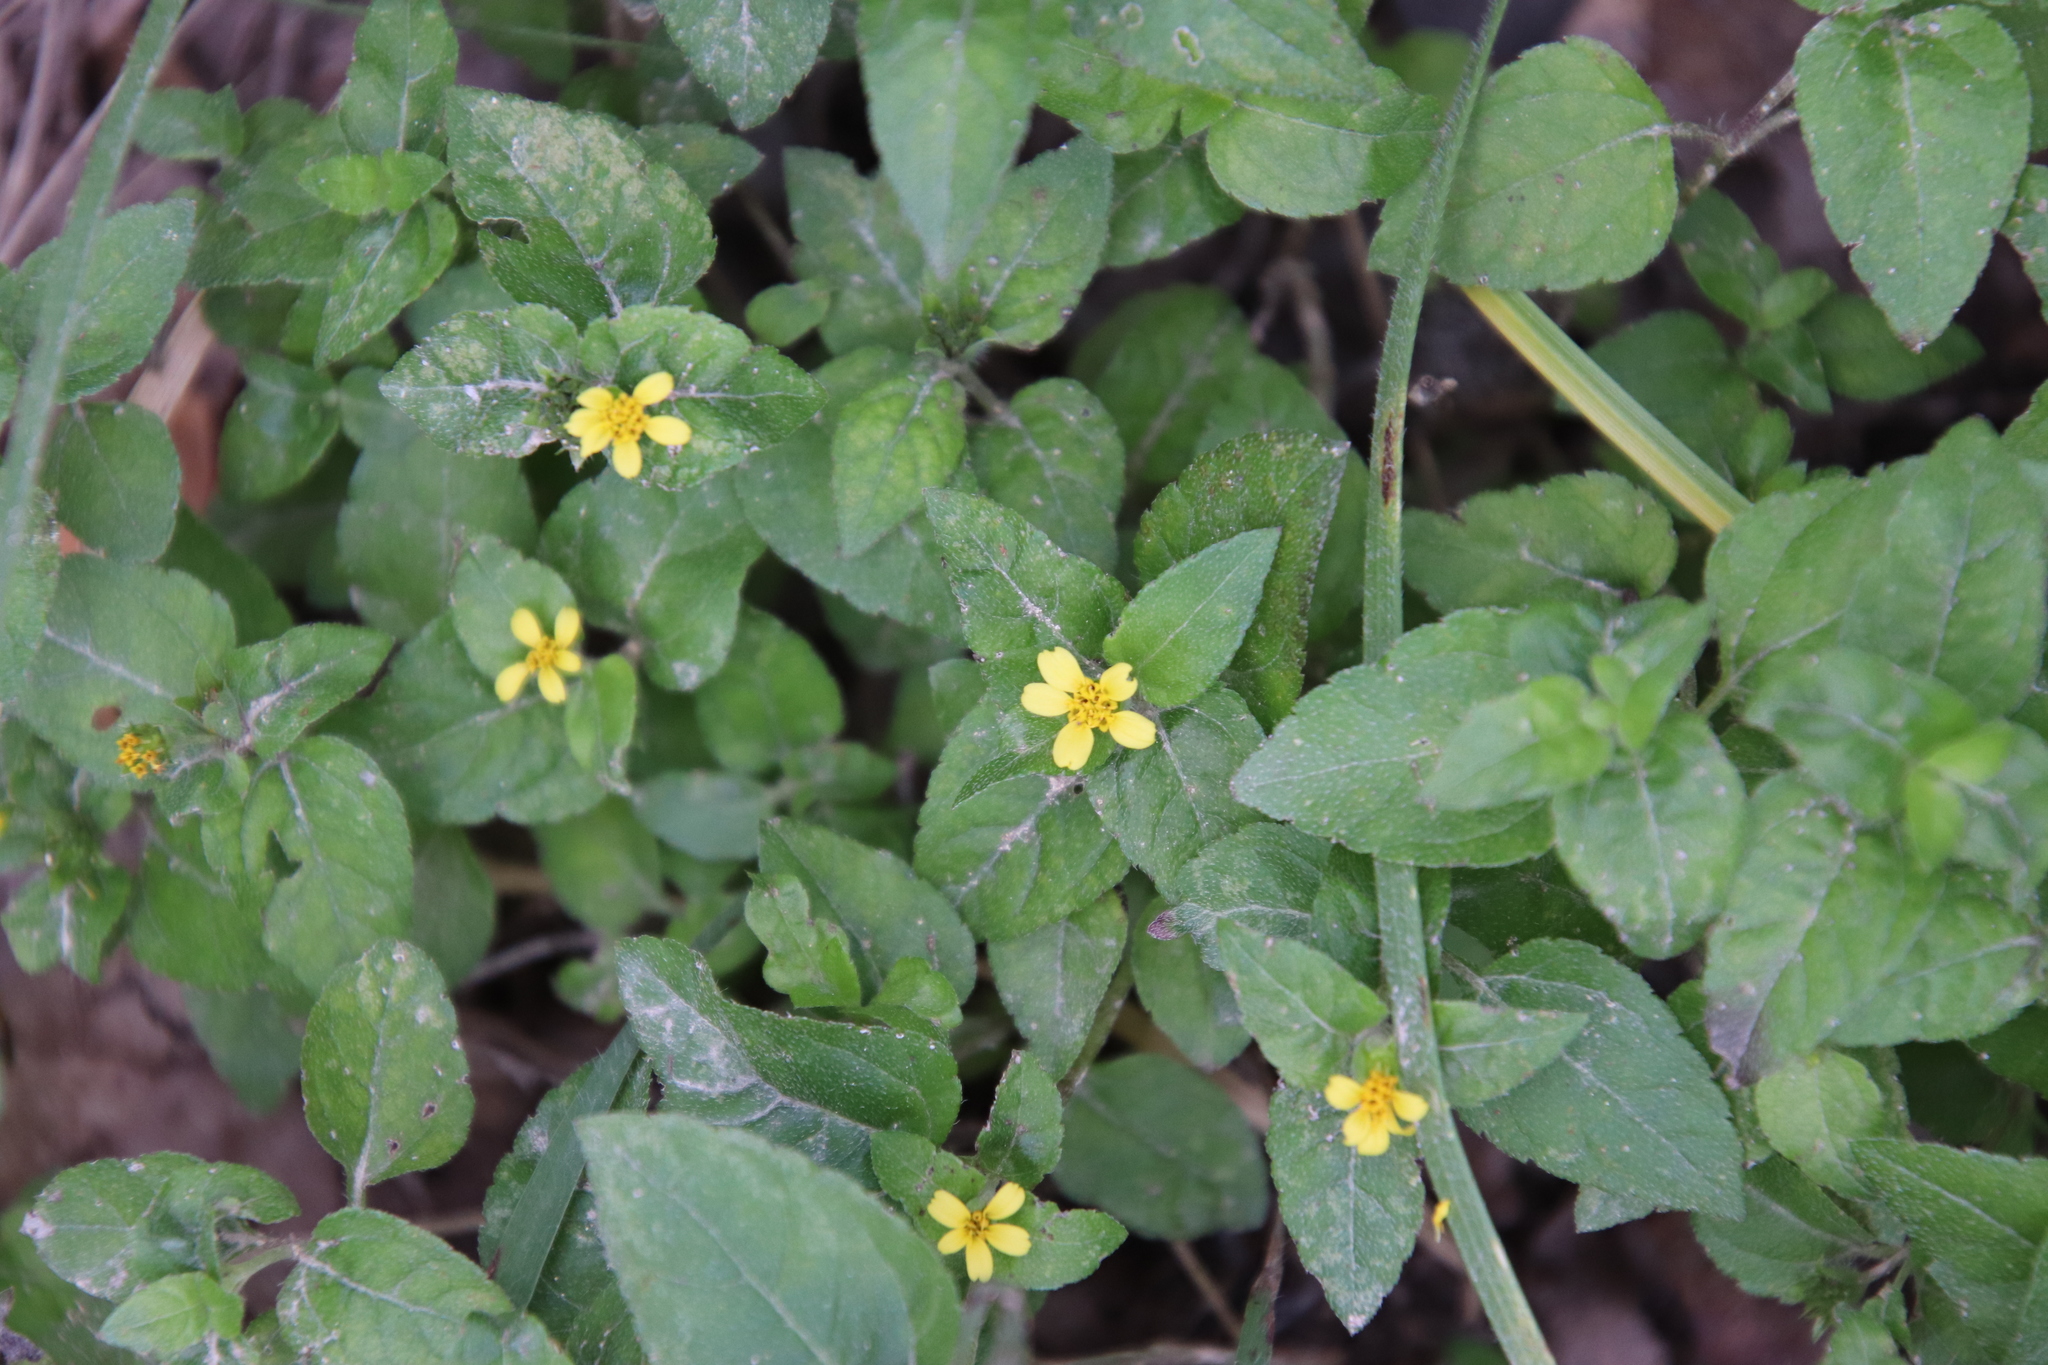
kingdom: Plantae
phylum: Tracheophyta
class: Magnoliopsida
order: Asterales
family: Asteraceae
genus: Calyptocarpus
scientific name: Calyptocarpus vialis
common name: Straggler daisy
